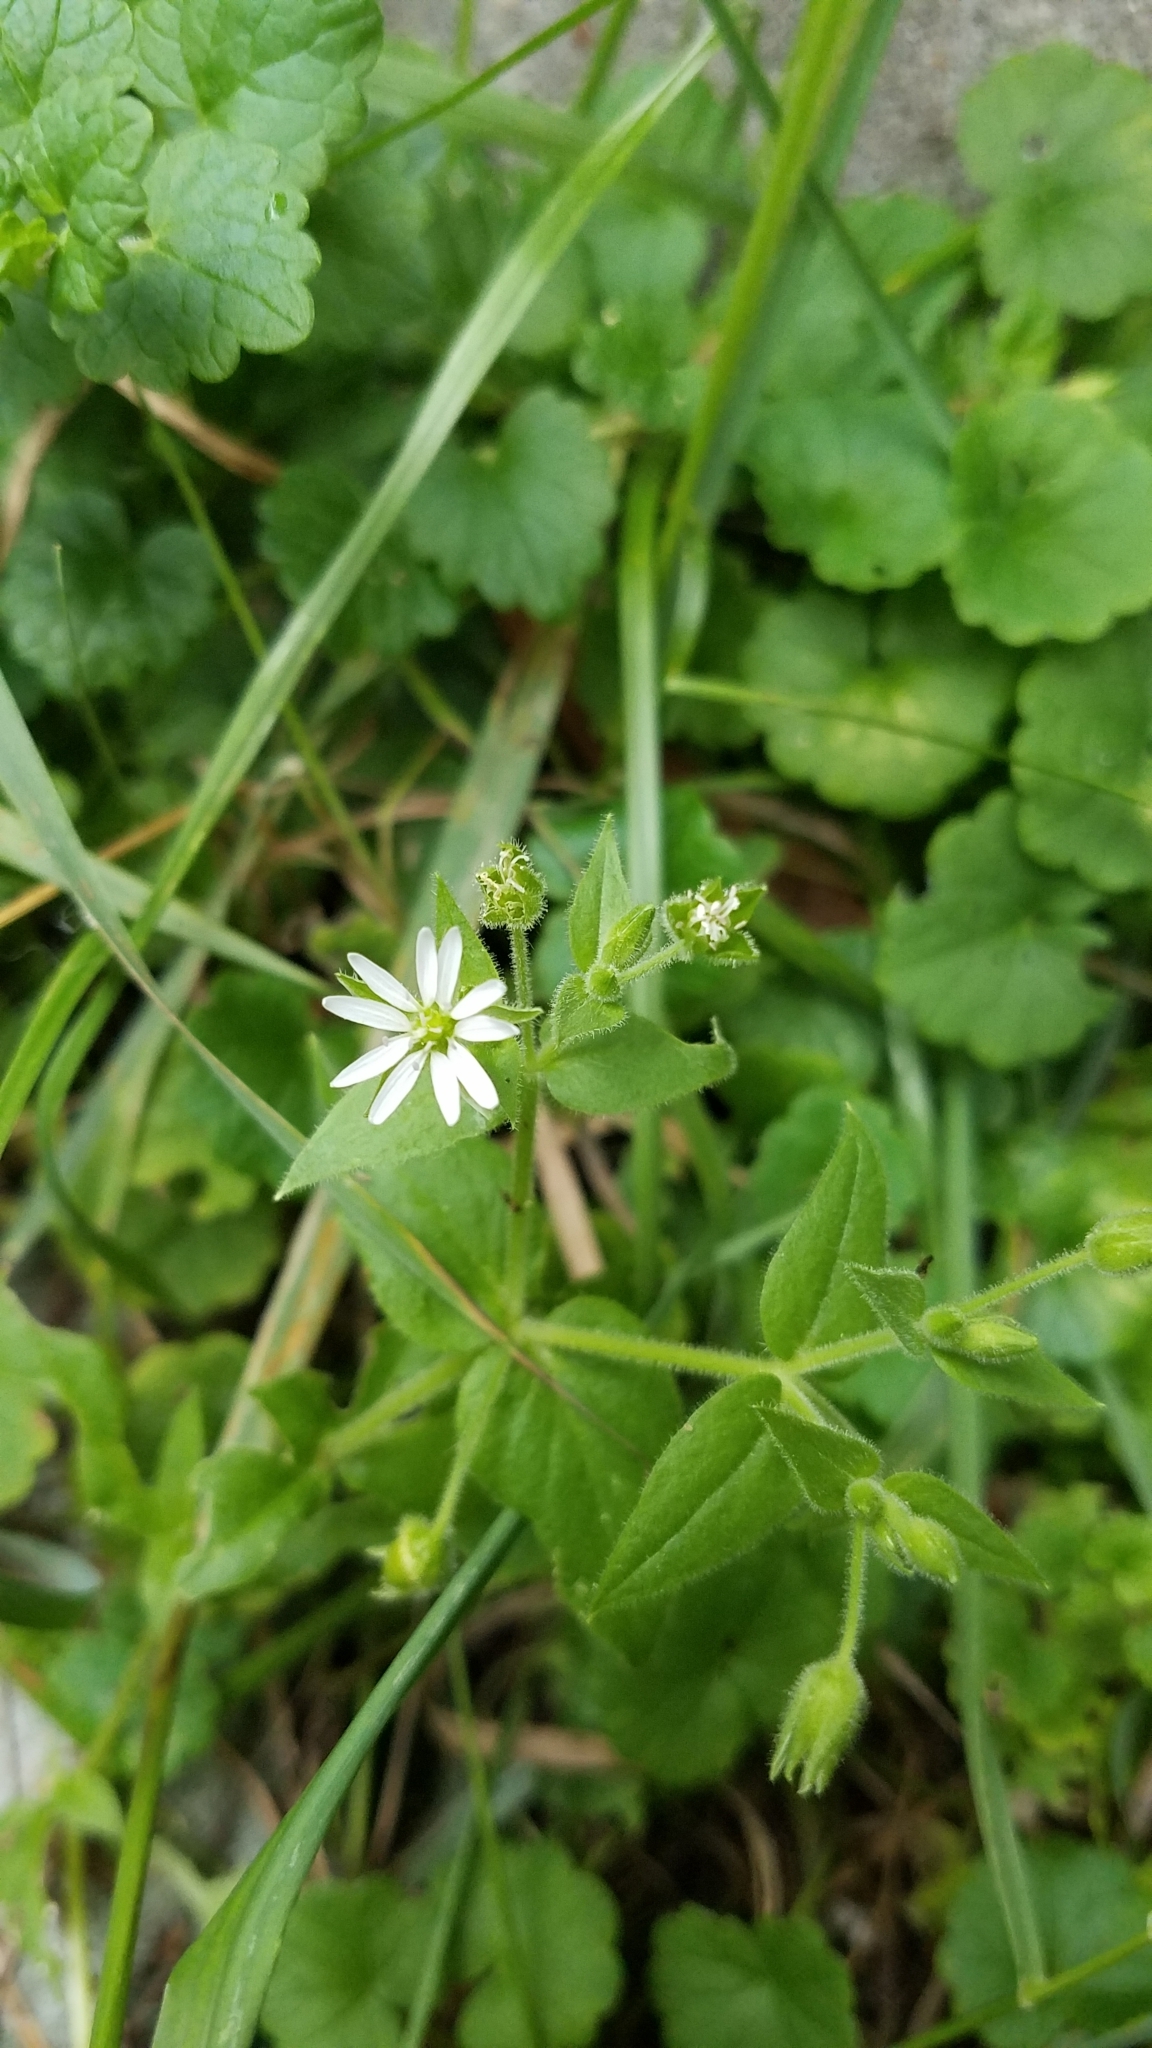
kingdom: Plantae
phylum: Tracheophyta
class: Magnoliopsida
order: Caryophyllales
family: Caryophyllaceae
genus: Stellaria
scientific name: Stellaria aquatica
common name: Water chickweed
